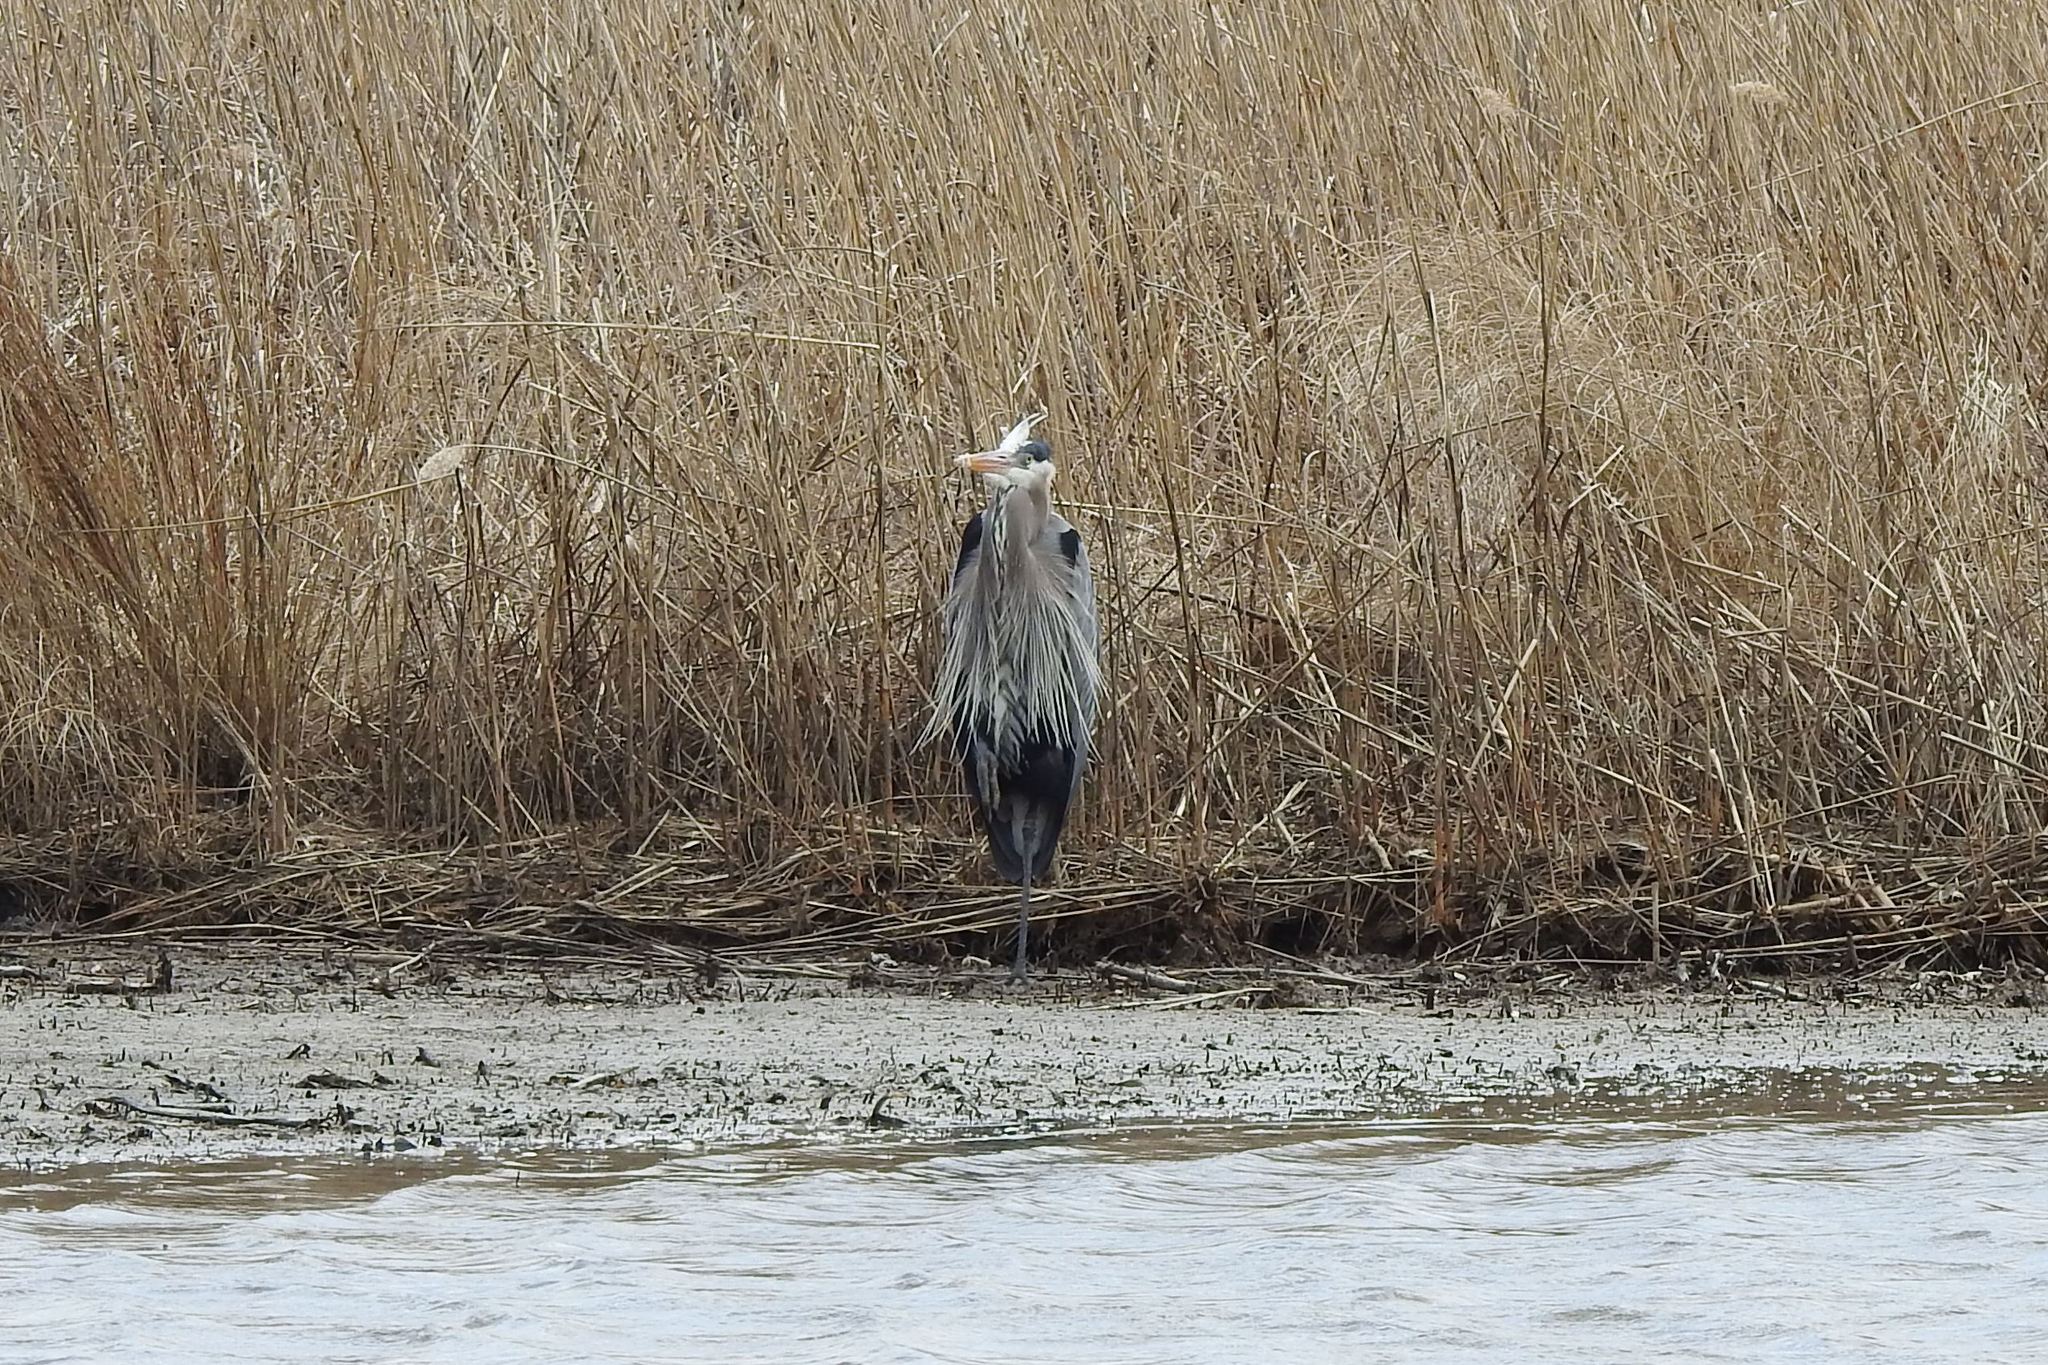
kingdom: Animalia
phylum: Chordata
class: Aves
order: Pelecaniformes
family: Ardeidae
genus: Ardea
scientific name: Ardea herodias
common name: Great blue heron
